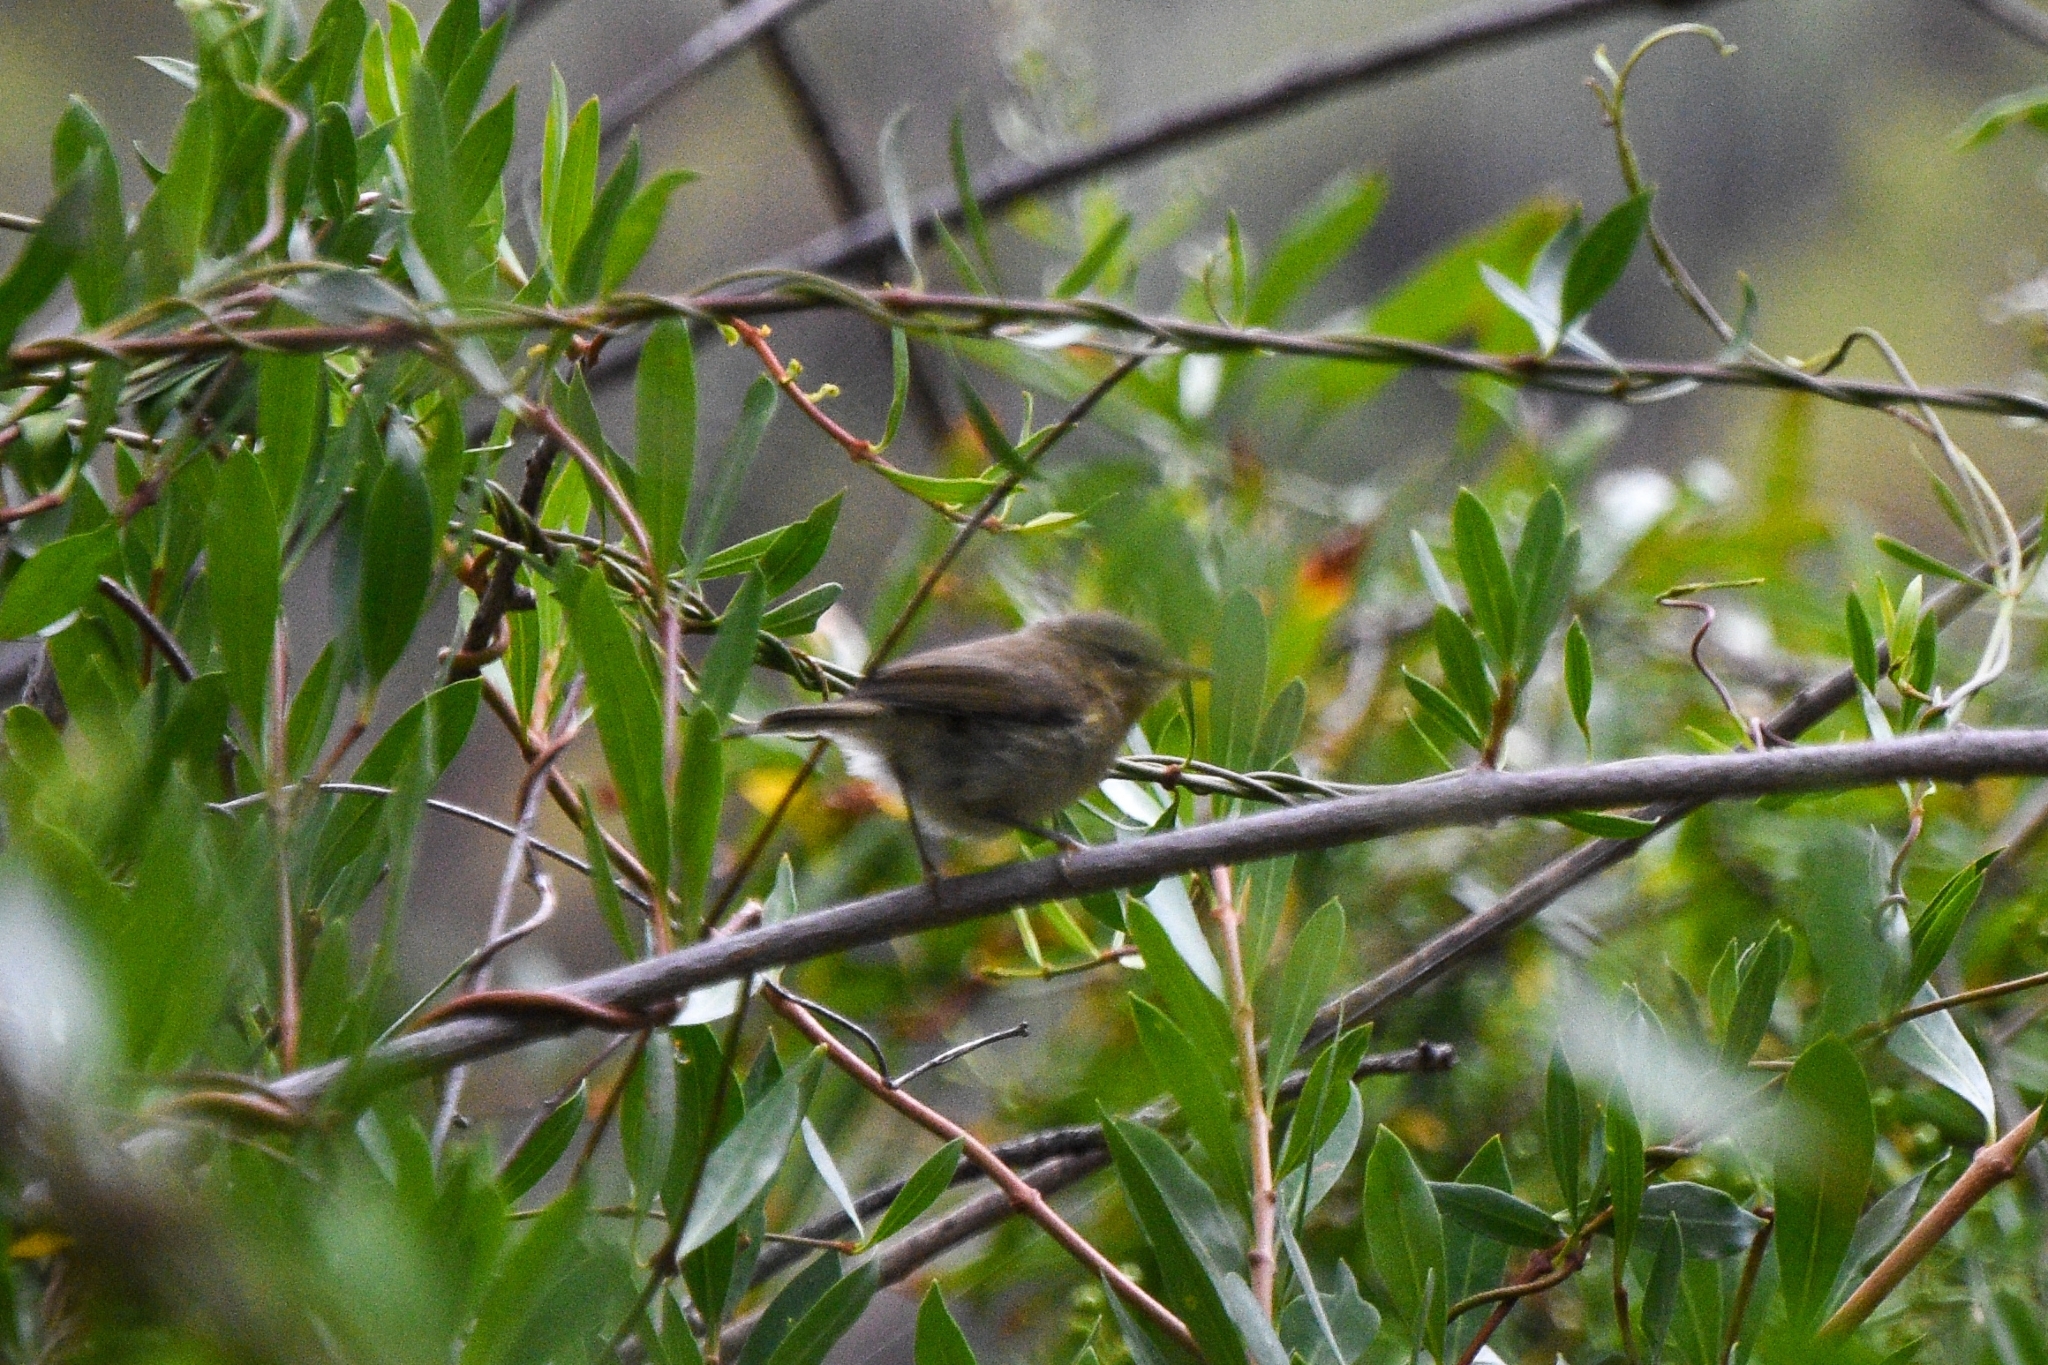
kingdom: Animalia
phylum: Chordata
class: Aves
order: Passeriformes
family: Phylloscopidae
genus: Phylloscopus
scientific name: Phylloscopus canariensis
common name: Canary islands chiffchaff
